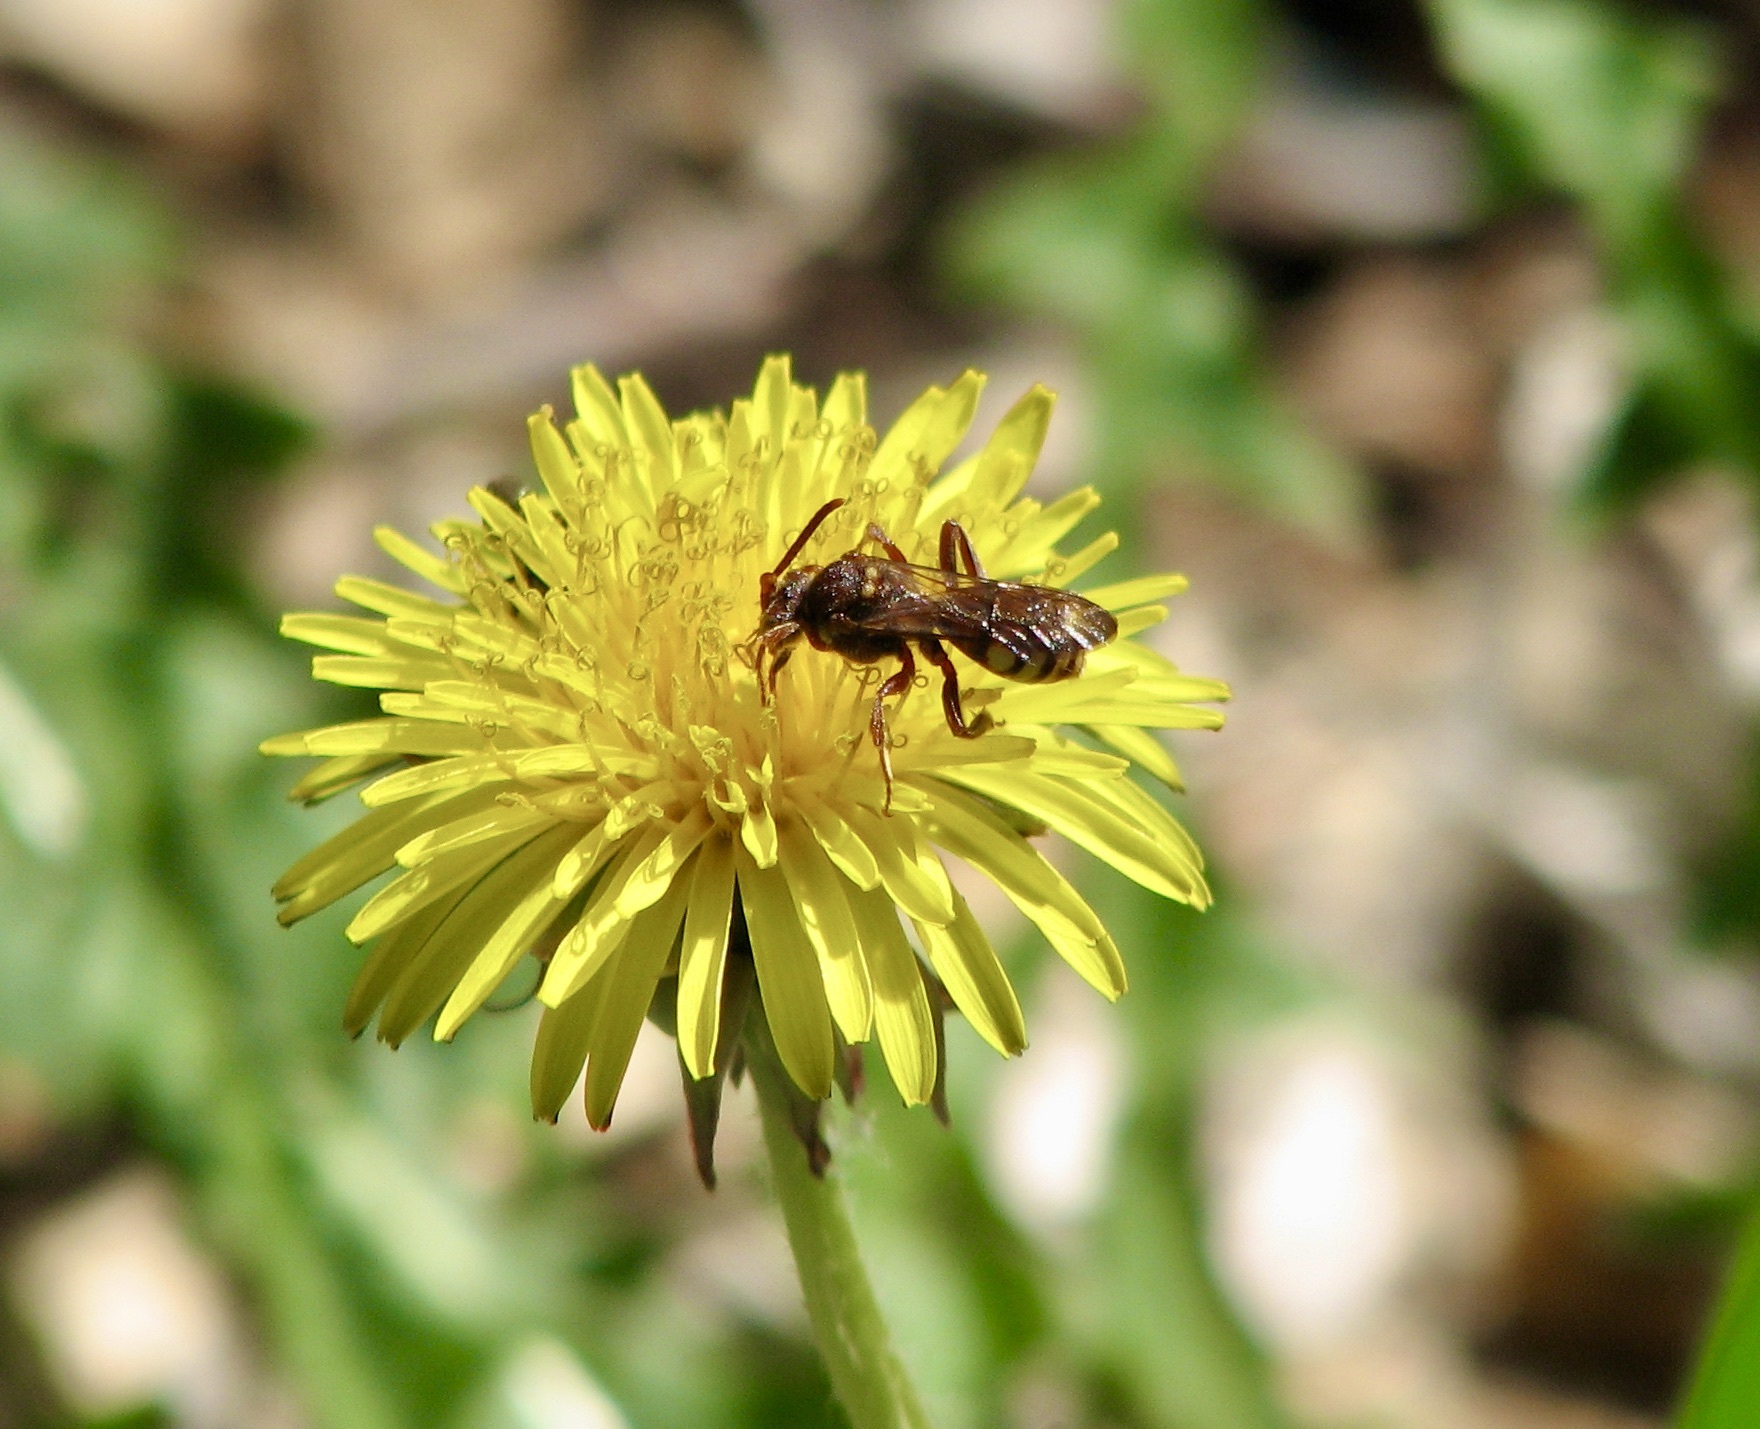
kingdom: Animalia
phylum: Arthropoda
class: Insecta
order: Hymenoptera
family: Apidae
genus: Nomada
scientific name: Nomada imbricata
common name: Imbricate cuckoo nomad bee
